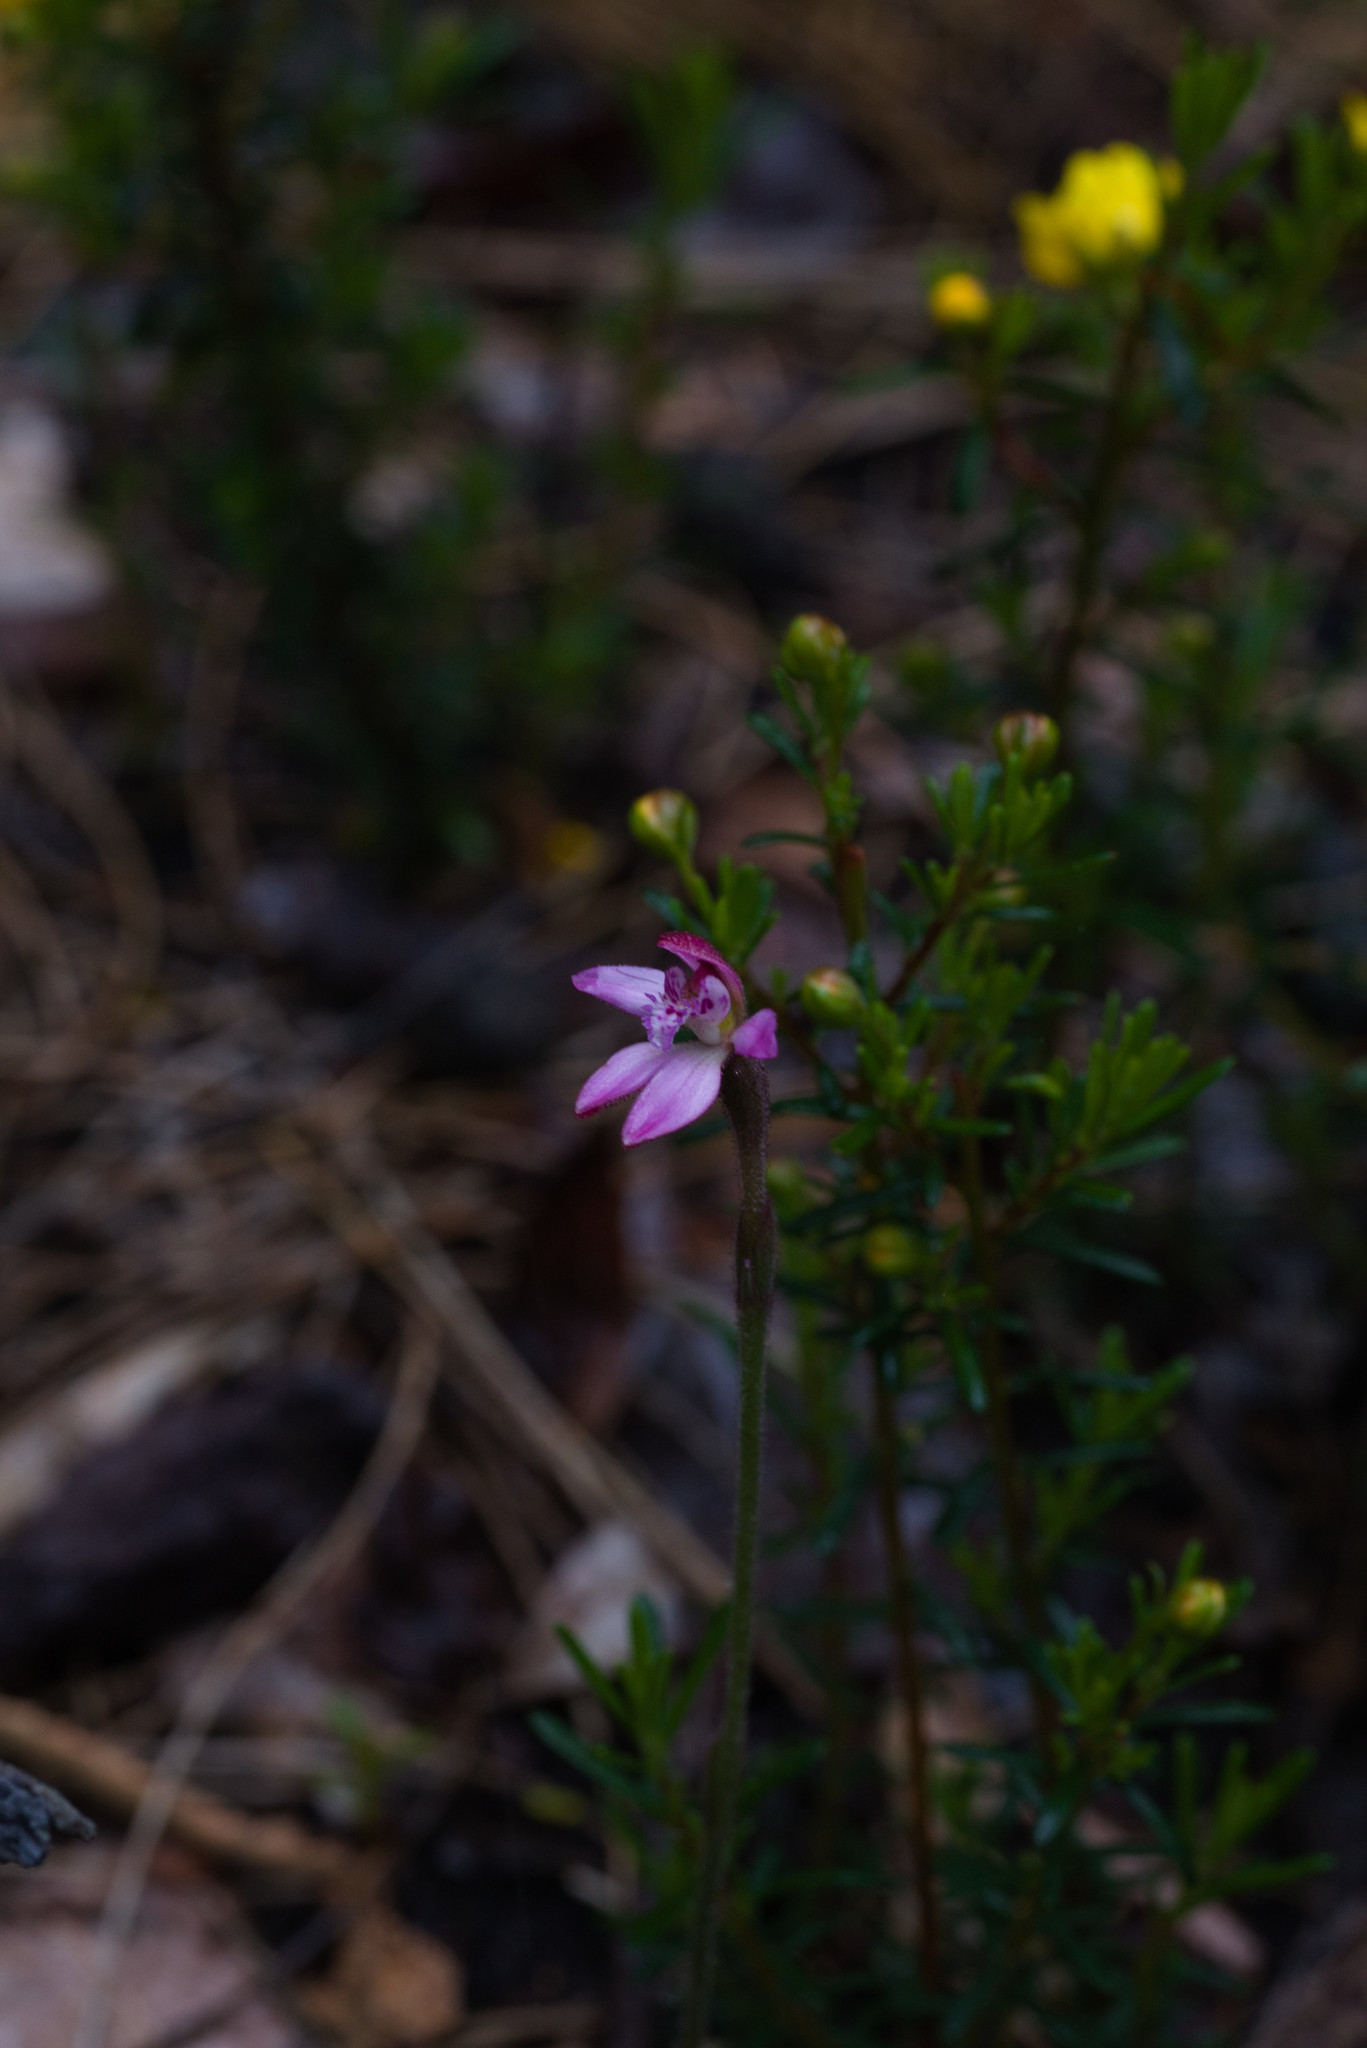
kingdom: Plantae
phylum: Tracheophyta
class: Liliopsida
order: Asparagales
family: Orchidaceae
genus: Caladenia
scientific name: Caladenia nana
